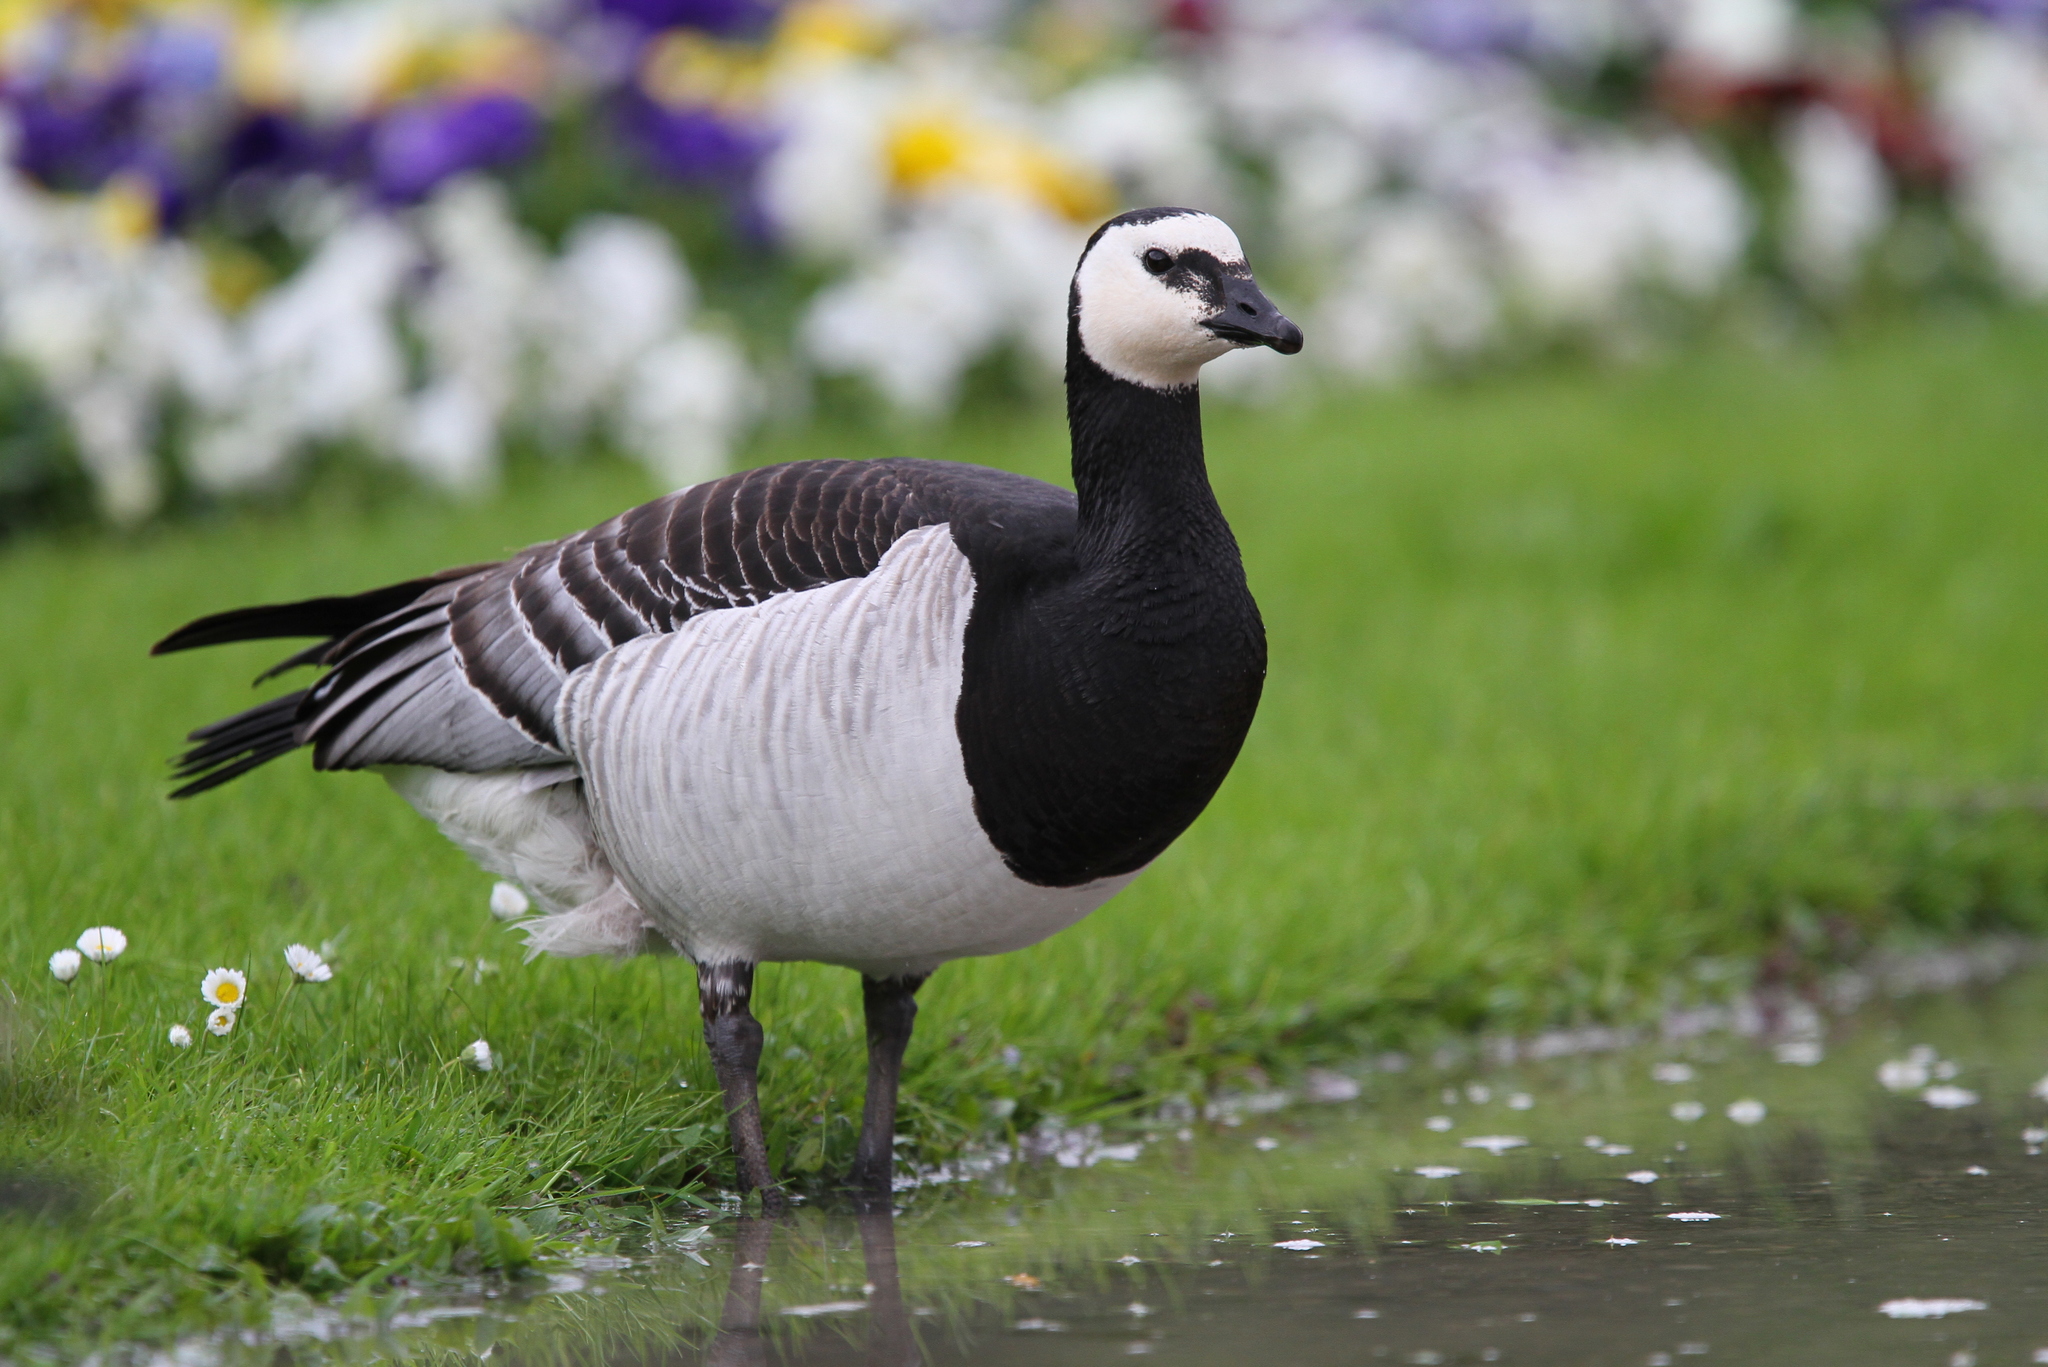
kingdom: Animalia
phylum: Chordata
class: Aves
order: Anseriformes
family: Anatidae
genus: Branta
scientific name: Branta leucopsis
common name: Barnacle goose
